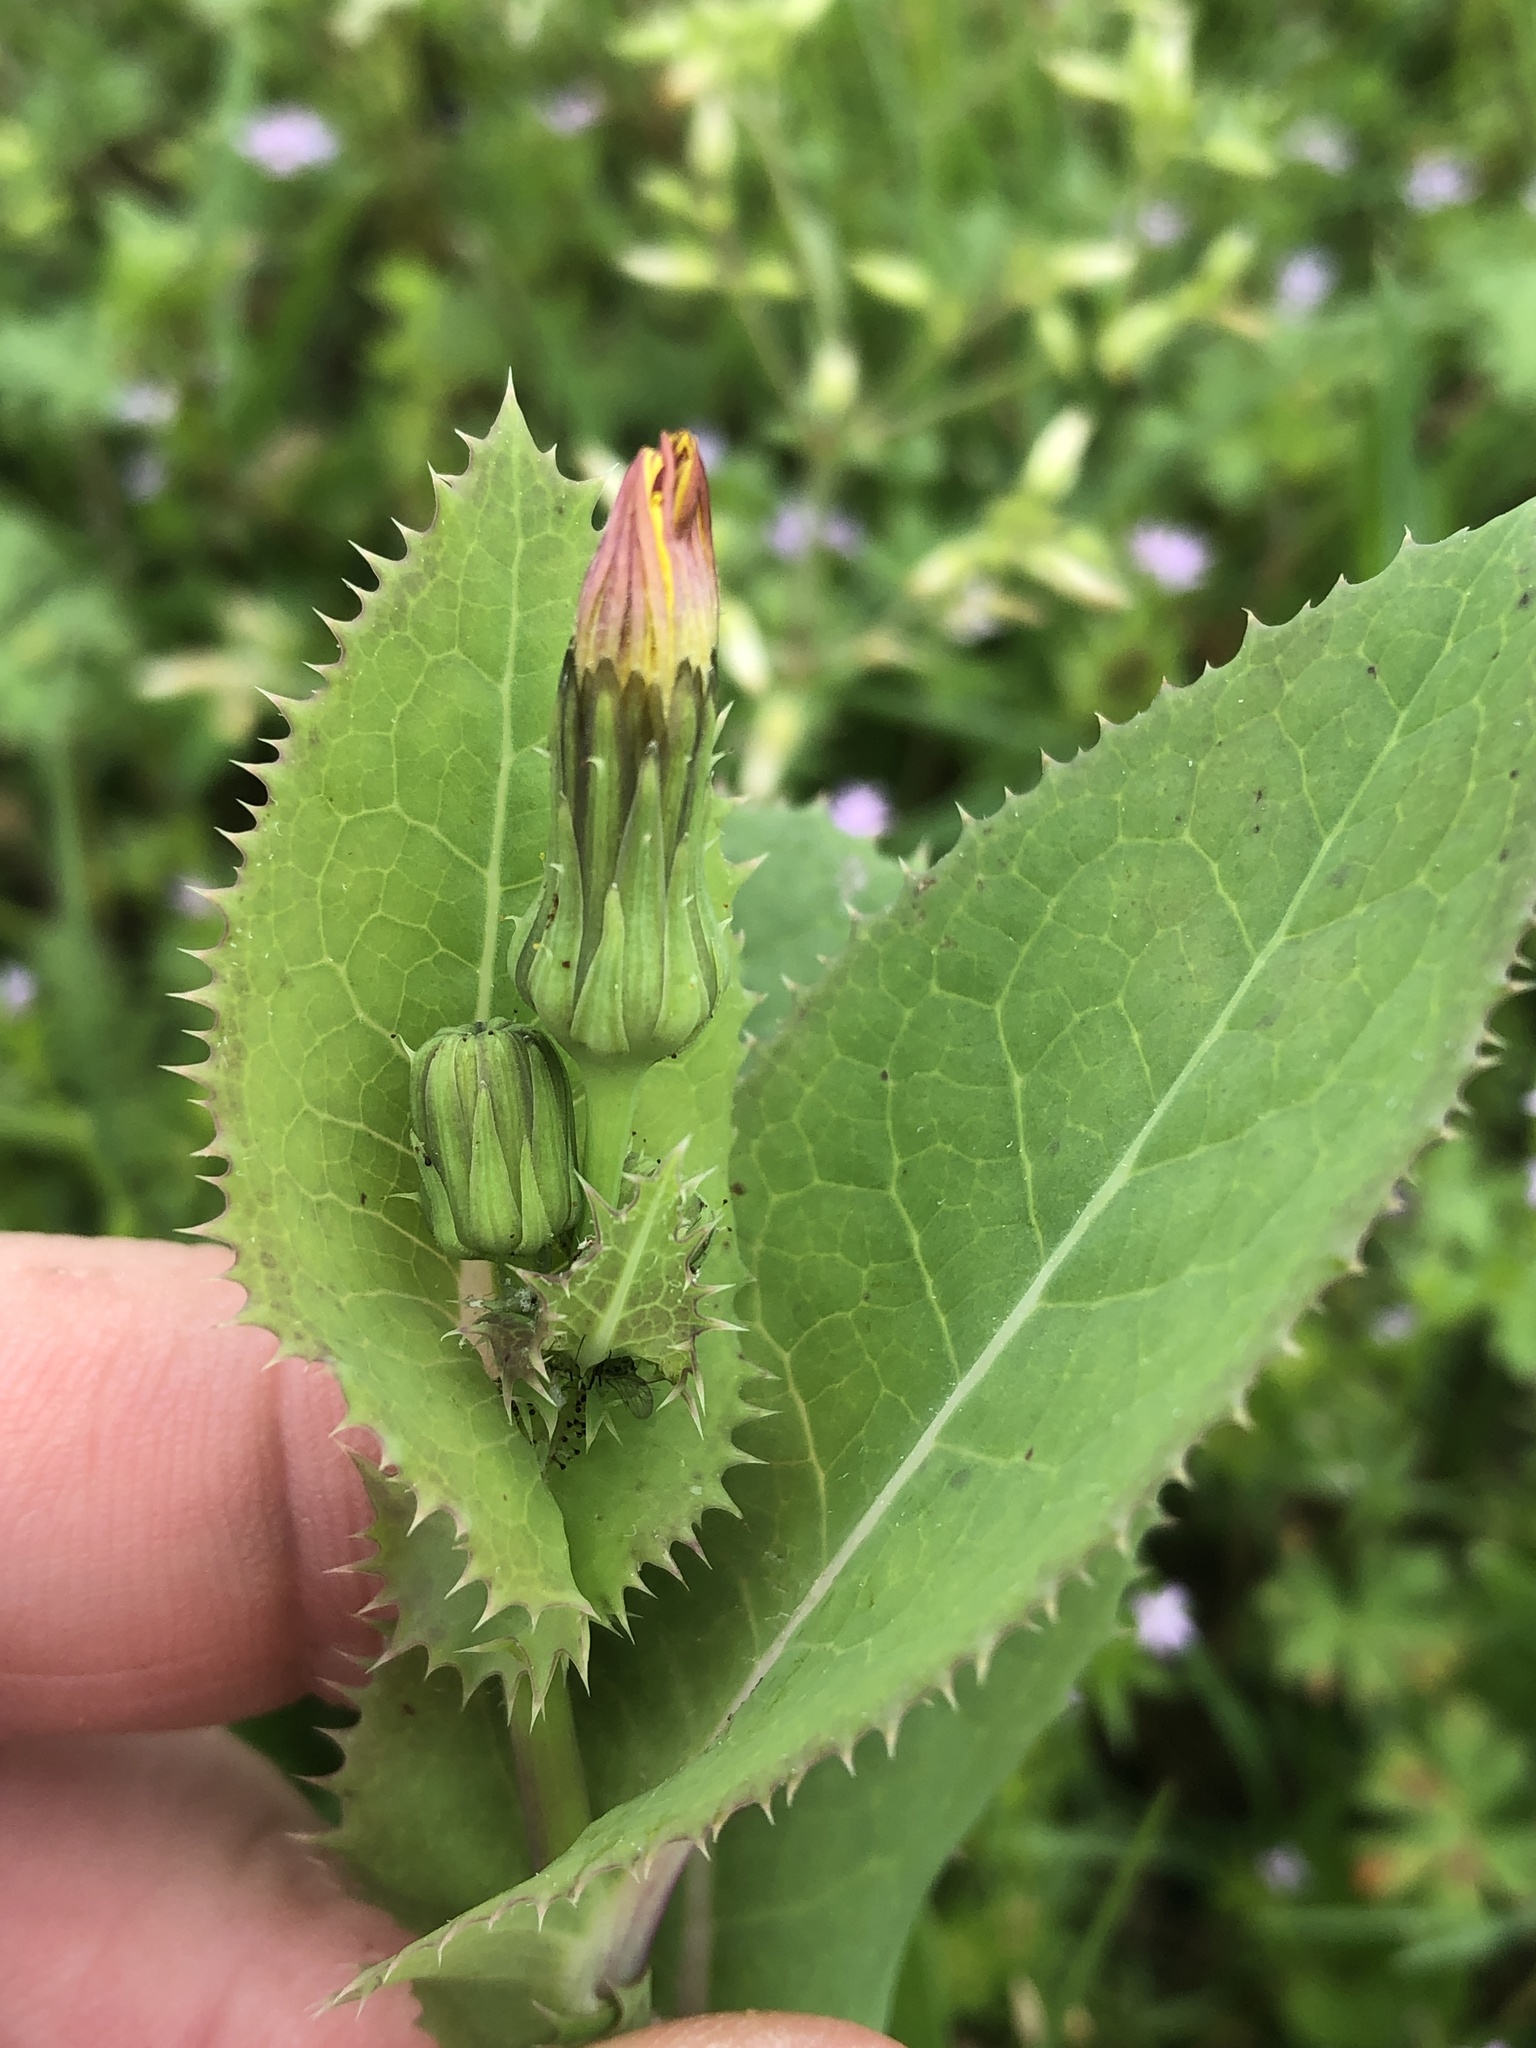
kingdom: Plantae
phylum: Tracheophyta
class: Magnoliopsida
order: Asterales
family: Asteraceae
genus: Sonchus
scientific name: Sonchus oleraceus
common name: Common sowthistle
